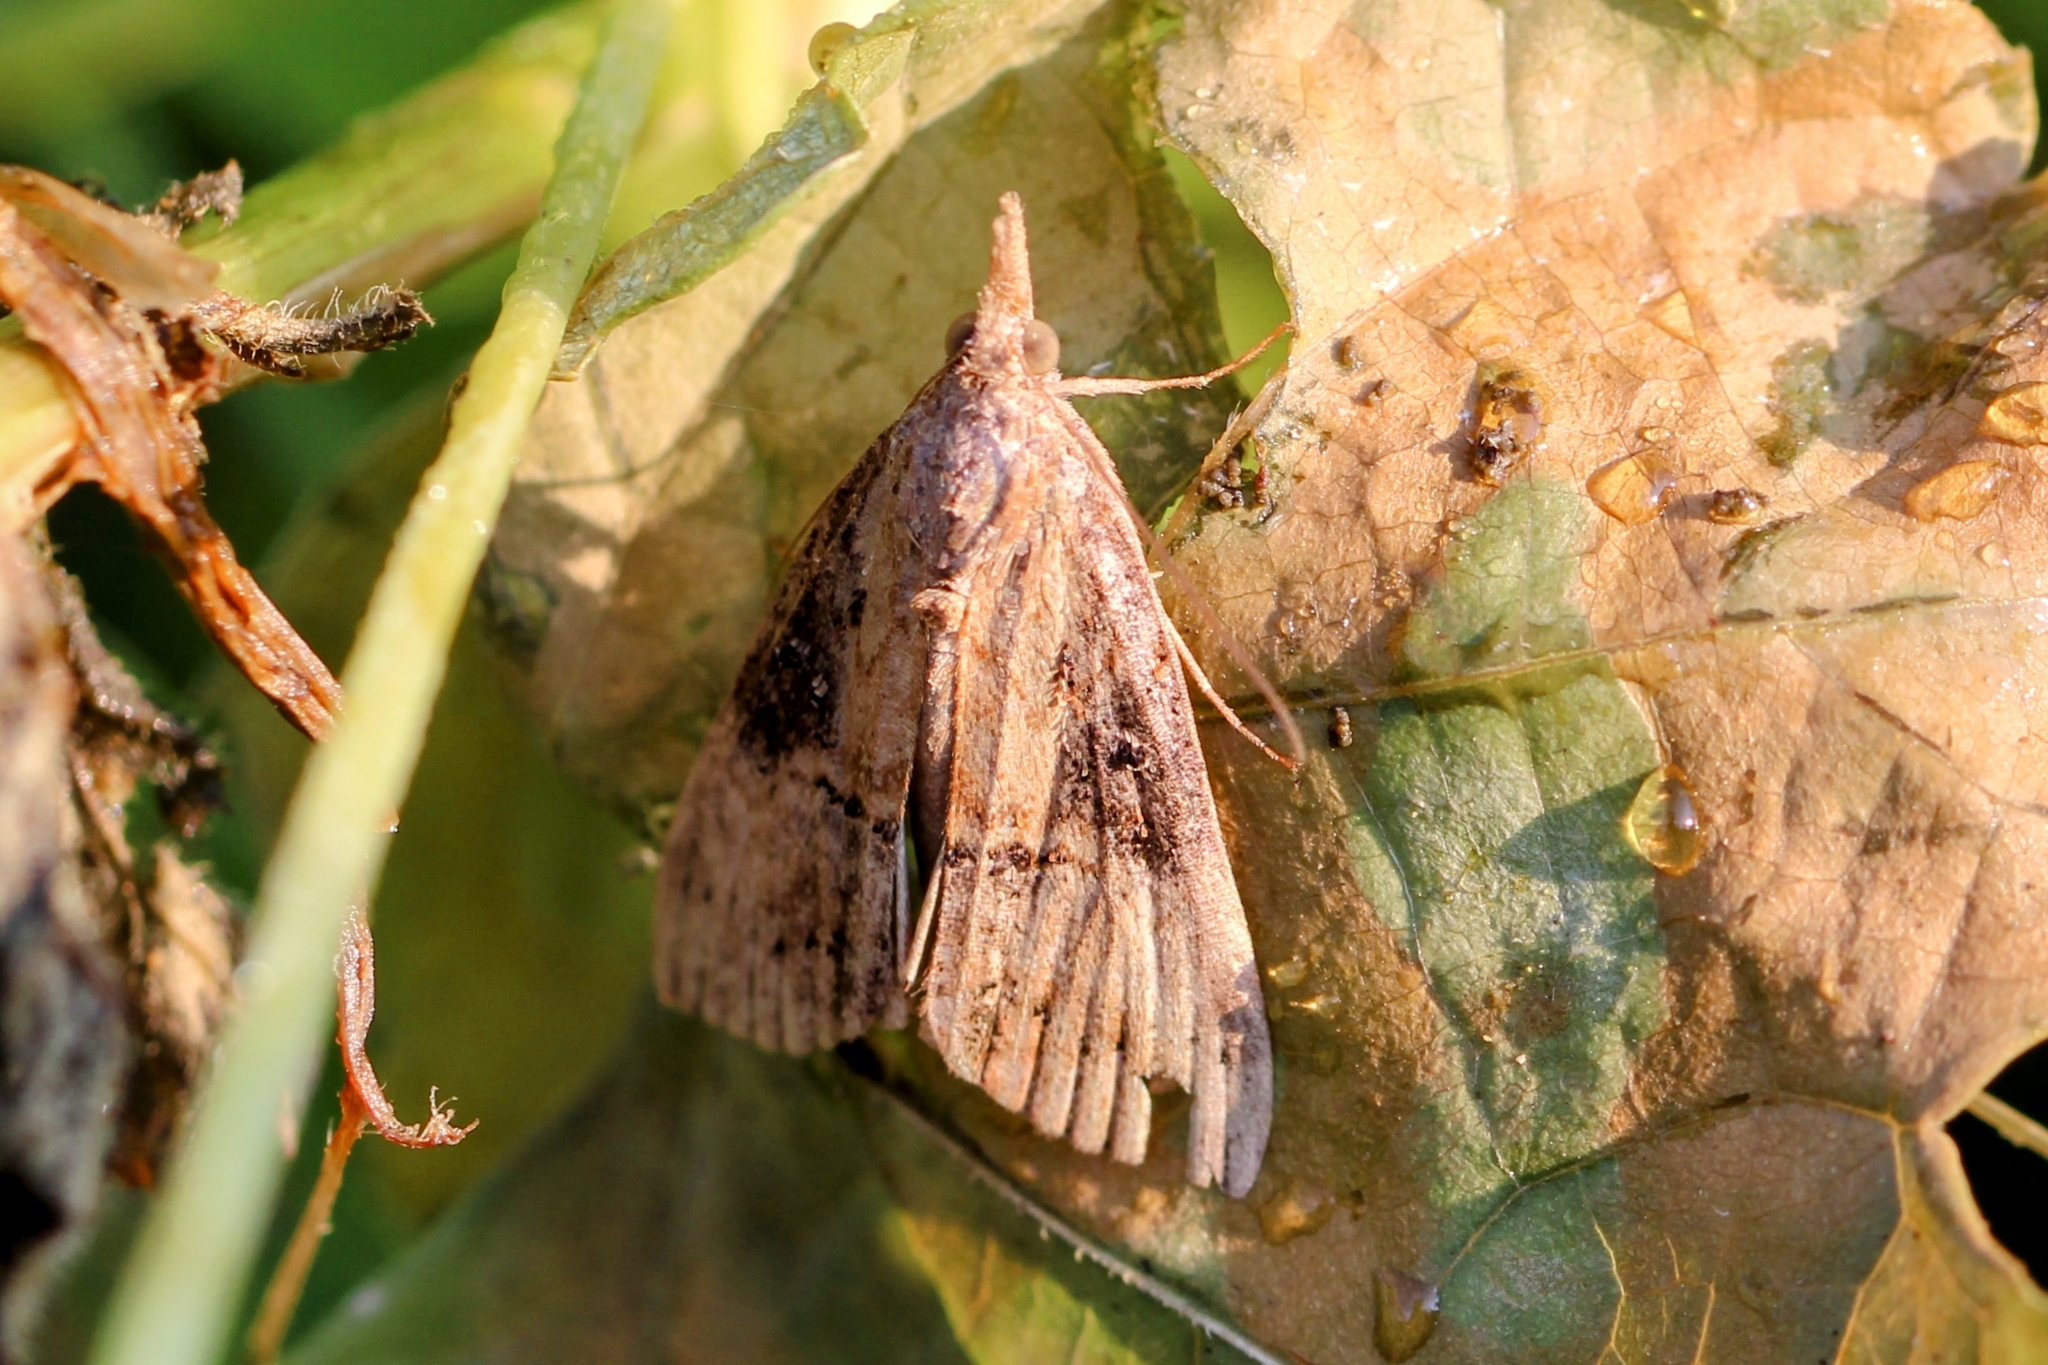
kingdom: Animalia
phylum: Arthropoda
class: Insecta
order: Lepidoptera
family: Erebidae
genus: Hypena
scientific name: Hypena scabra
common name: Green cloverworm
